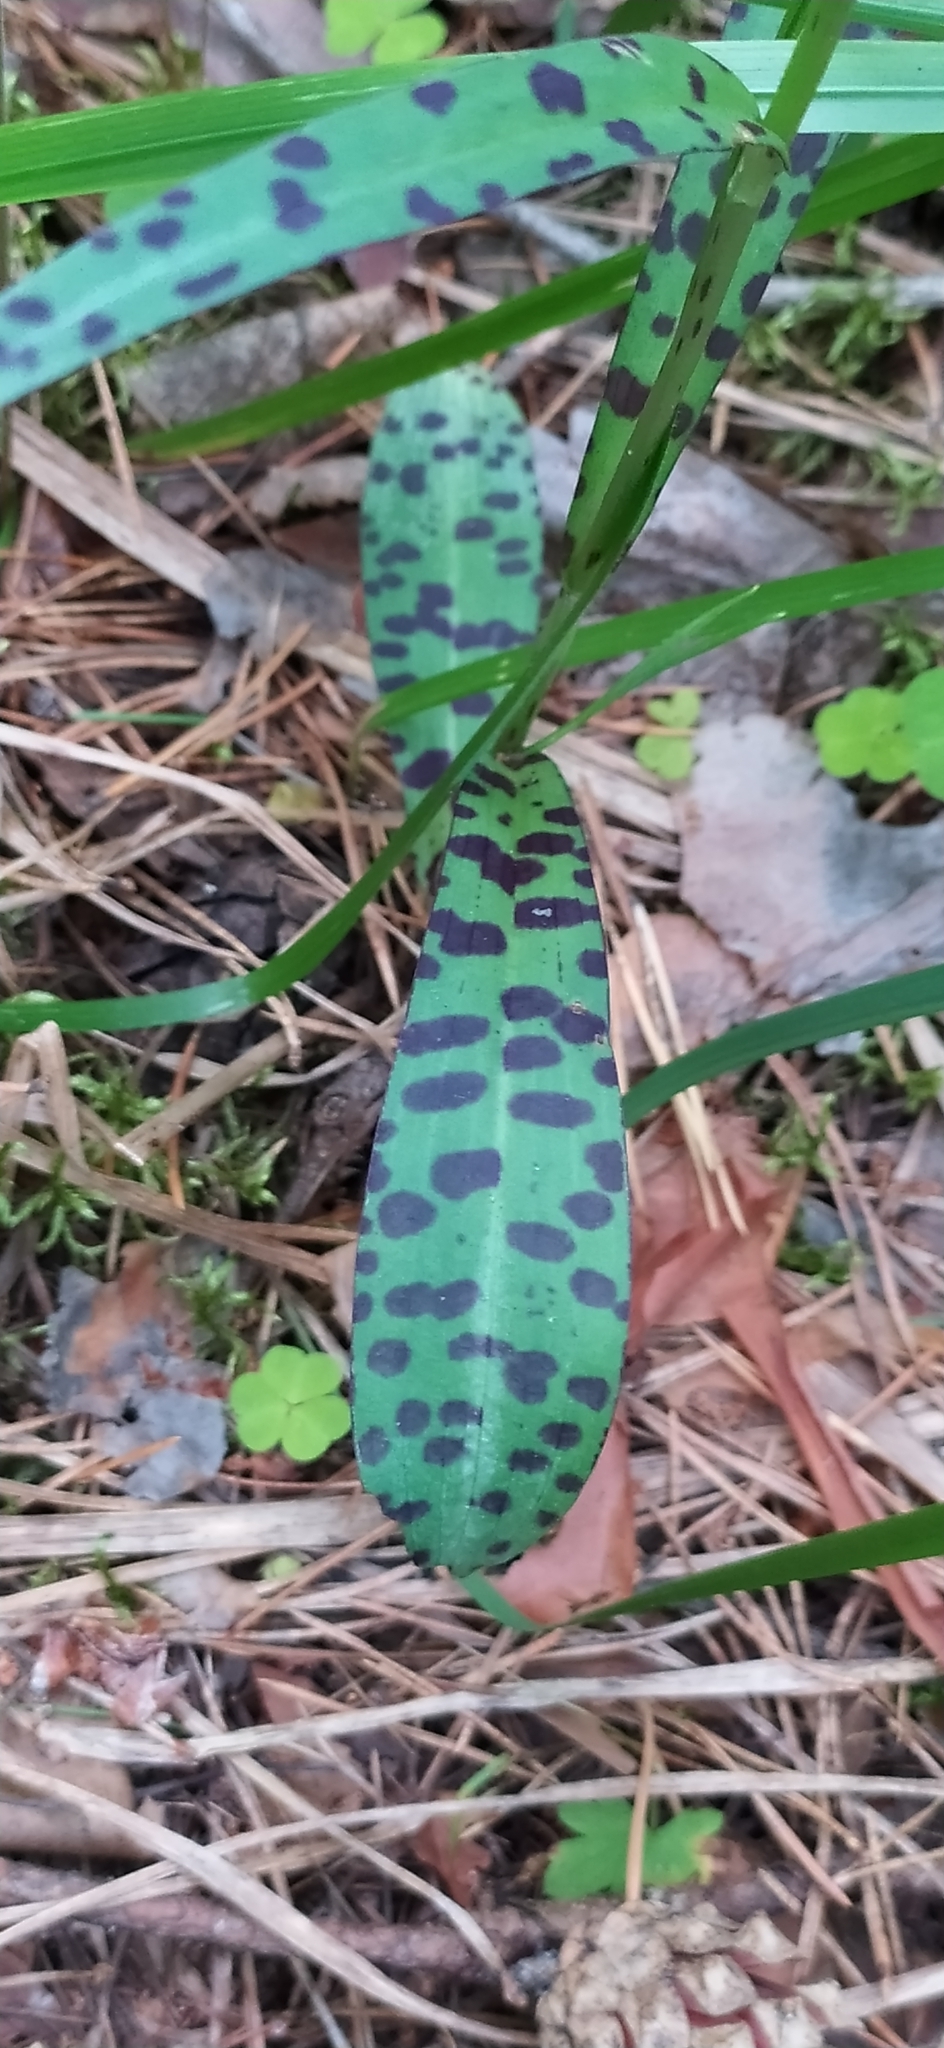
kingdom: Plantae
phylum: Tracheophyta
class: Liliopsida
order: Asparagales
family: Orchidaceae
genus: Dactylorhiza
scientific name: Dactylorhiza maculata
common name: Heath spotted-orchid
